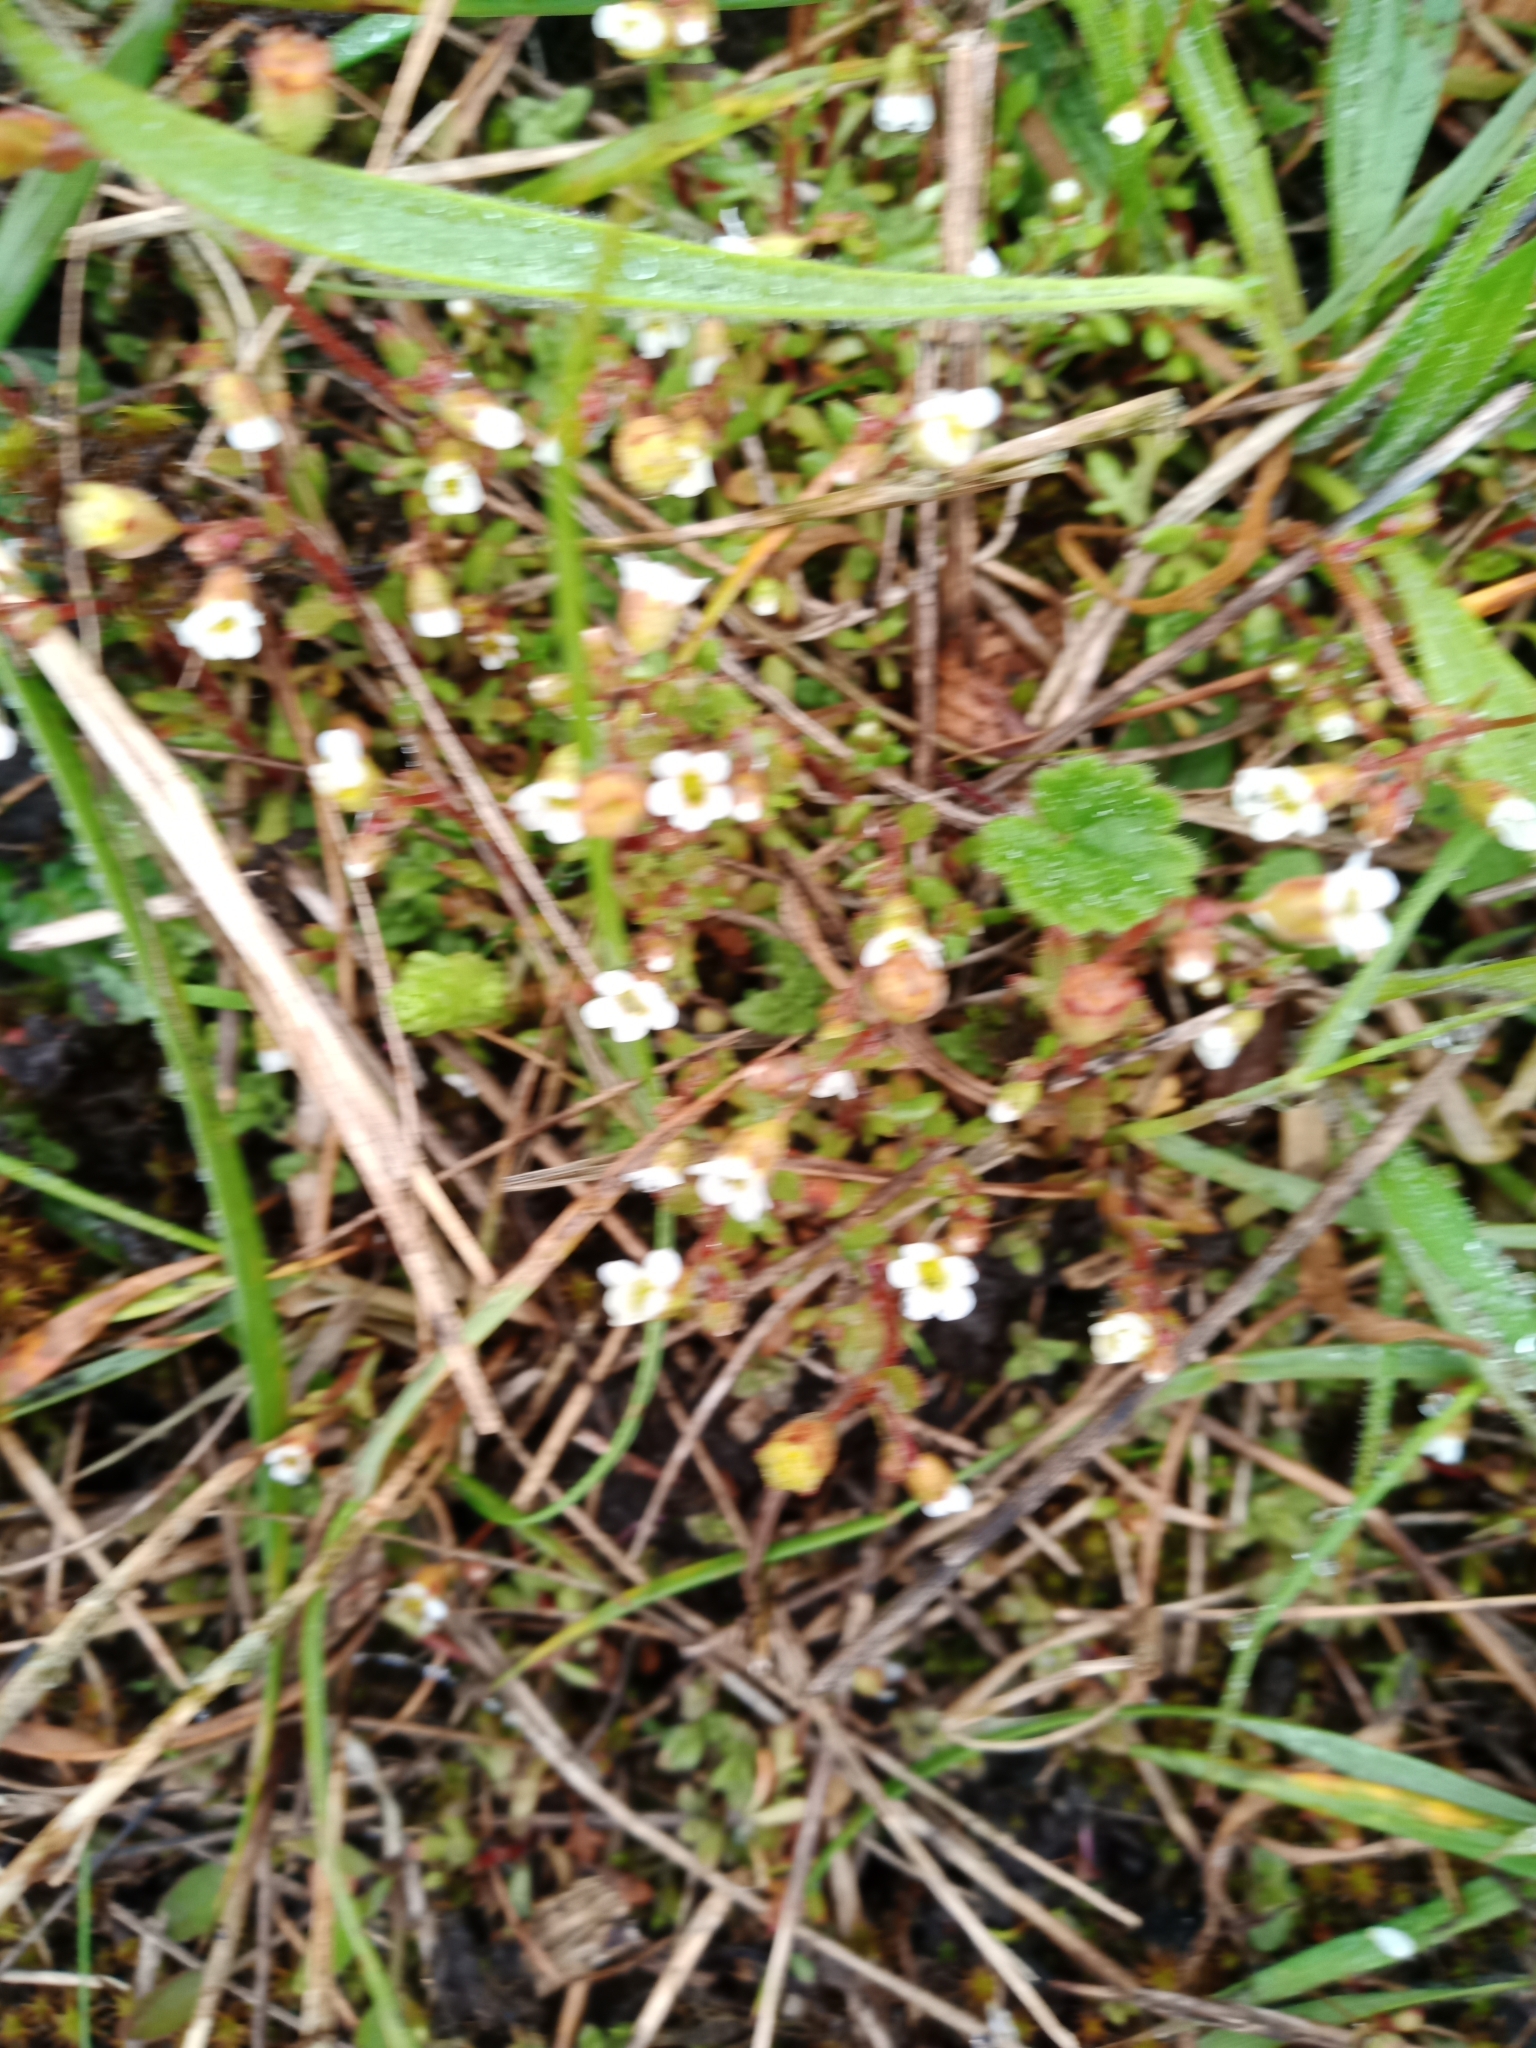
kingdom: Plantae
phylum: Tracheophyta
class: Magnoliopsida
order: Saxifragales
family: Saxifragaceae
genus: Saxifraga
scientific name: Saxifraga tridactylites
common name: Rue-leaved saxifrage
